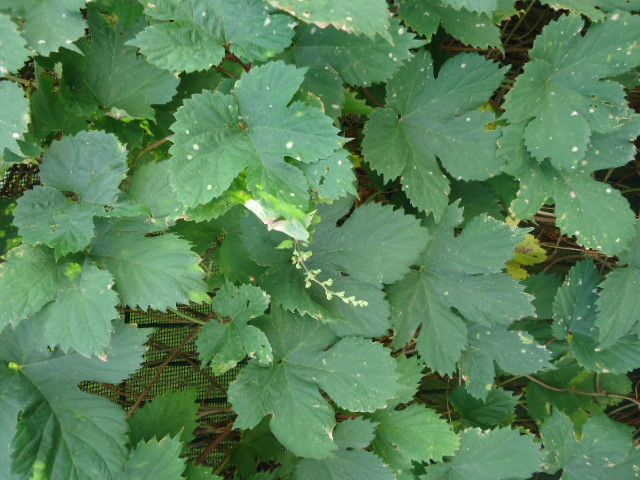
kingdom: Plantae
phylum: Tracheophyta
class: Magnoliopsida
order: Rosales
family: Cannabaceae
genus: Humulus
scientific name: Humulus lupulus
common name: Hop
